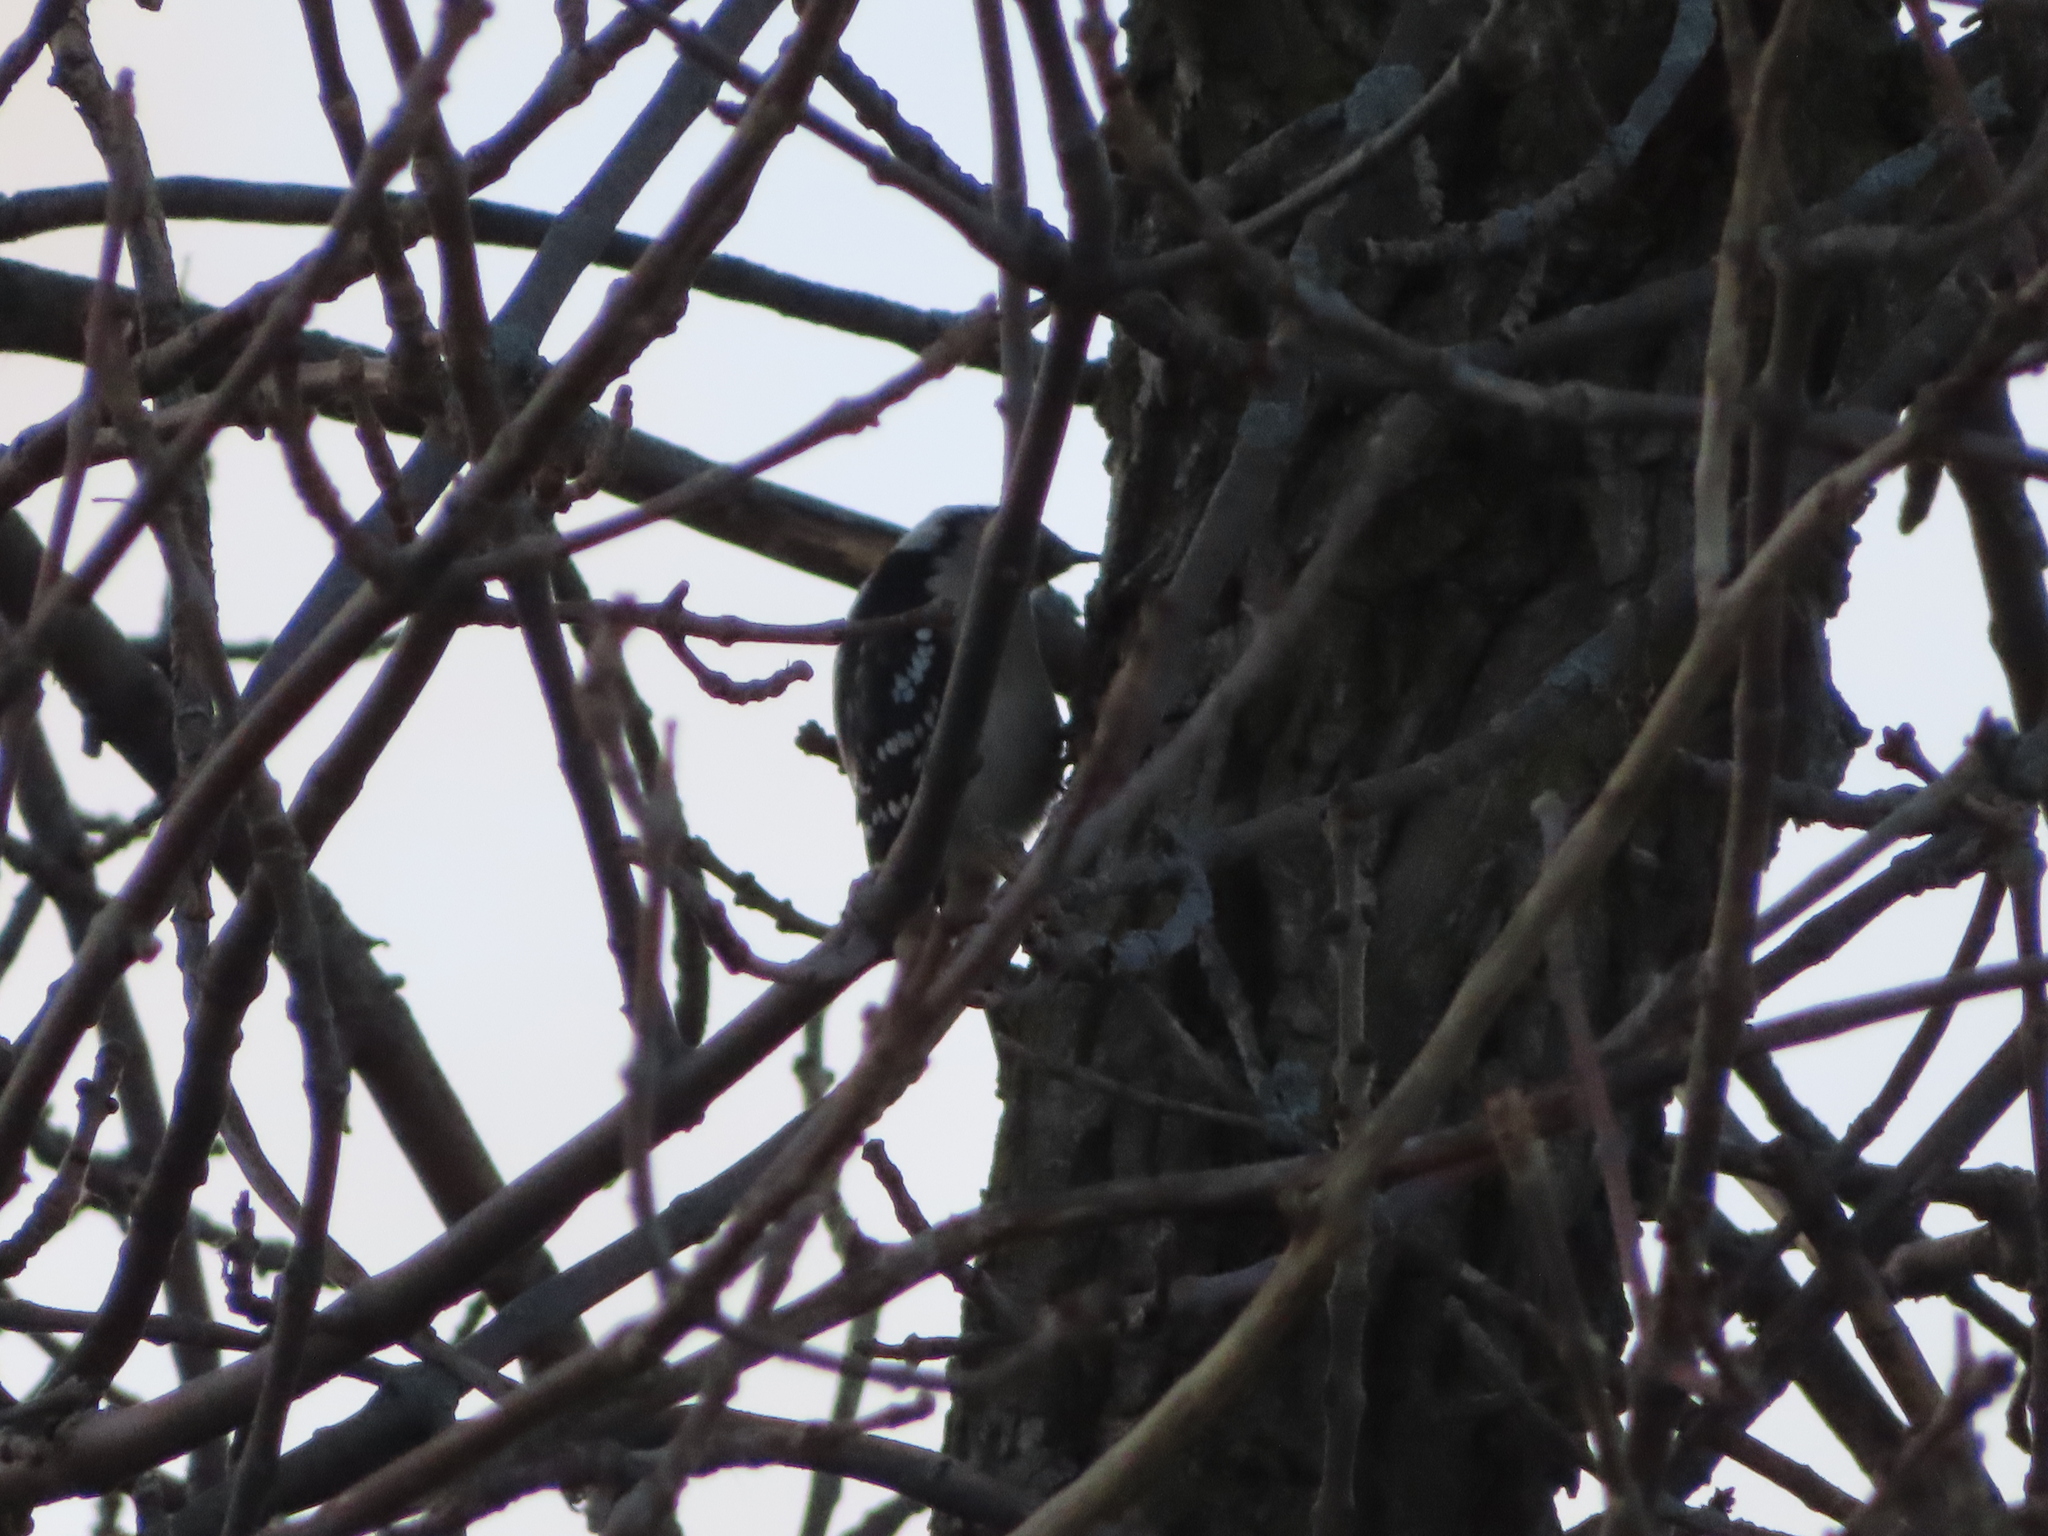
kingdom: Animalia
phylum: Chordata
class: Aves
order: Piciformes
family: Picidae
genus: Dryobates
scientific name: Dryobates pubescens
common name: Downy woodpecker
